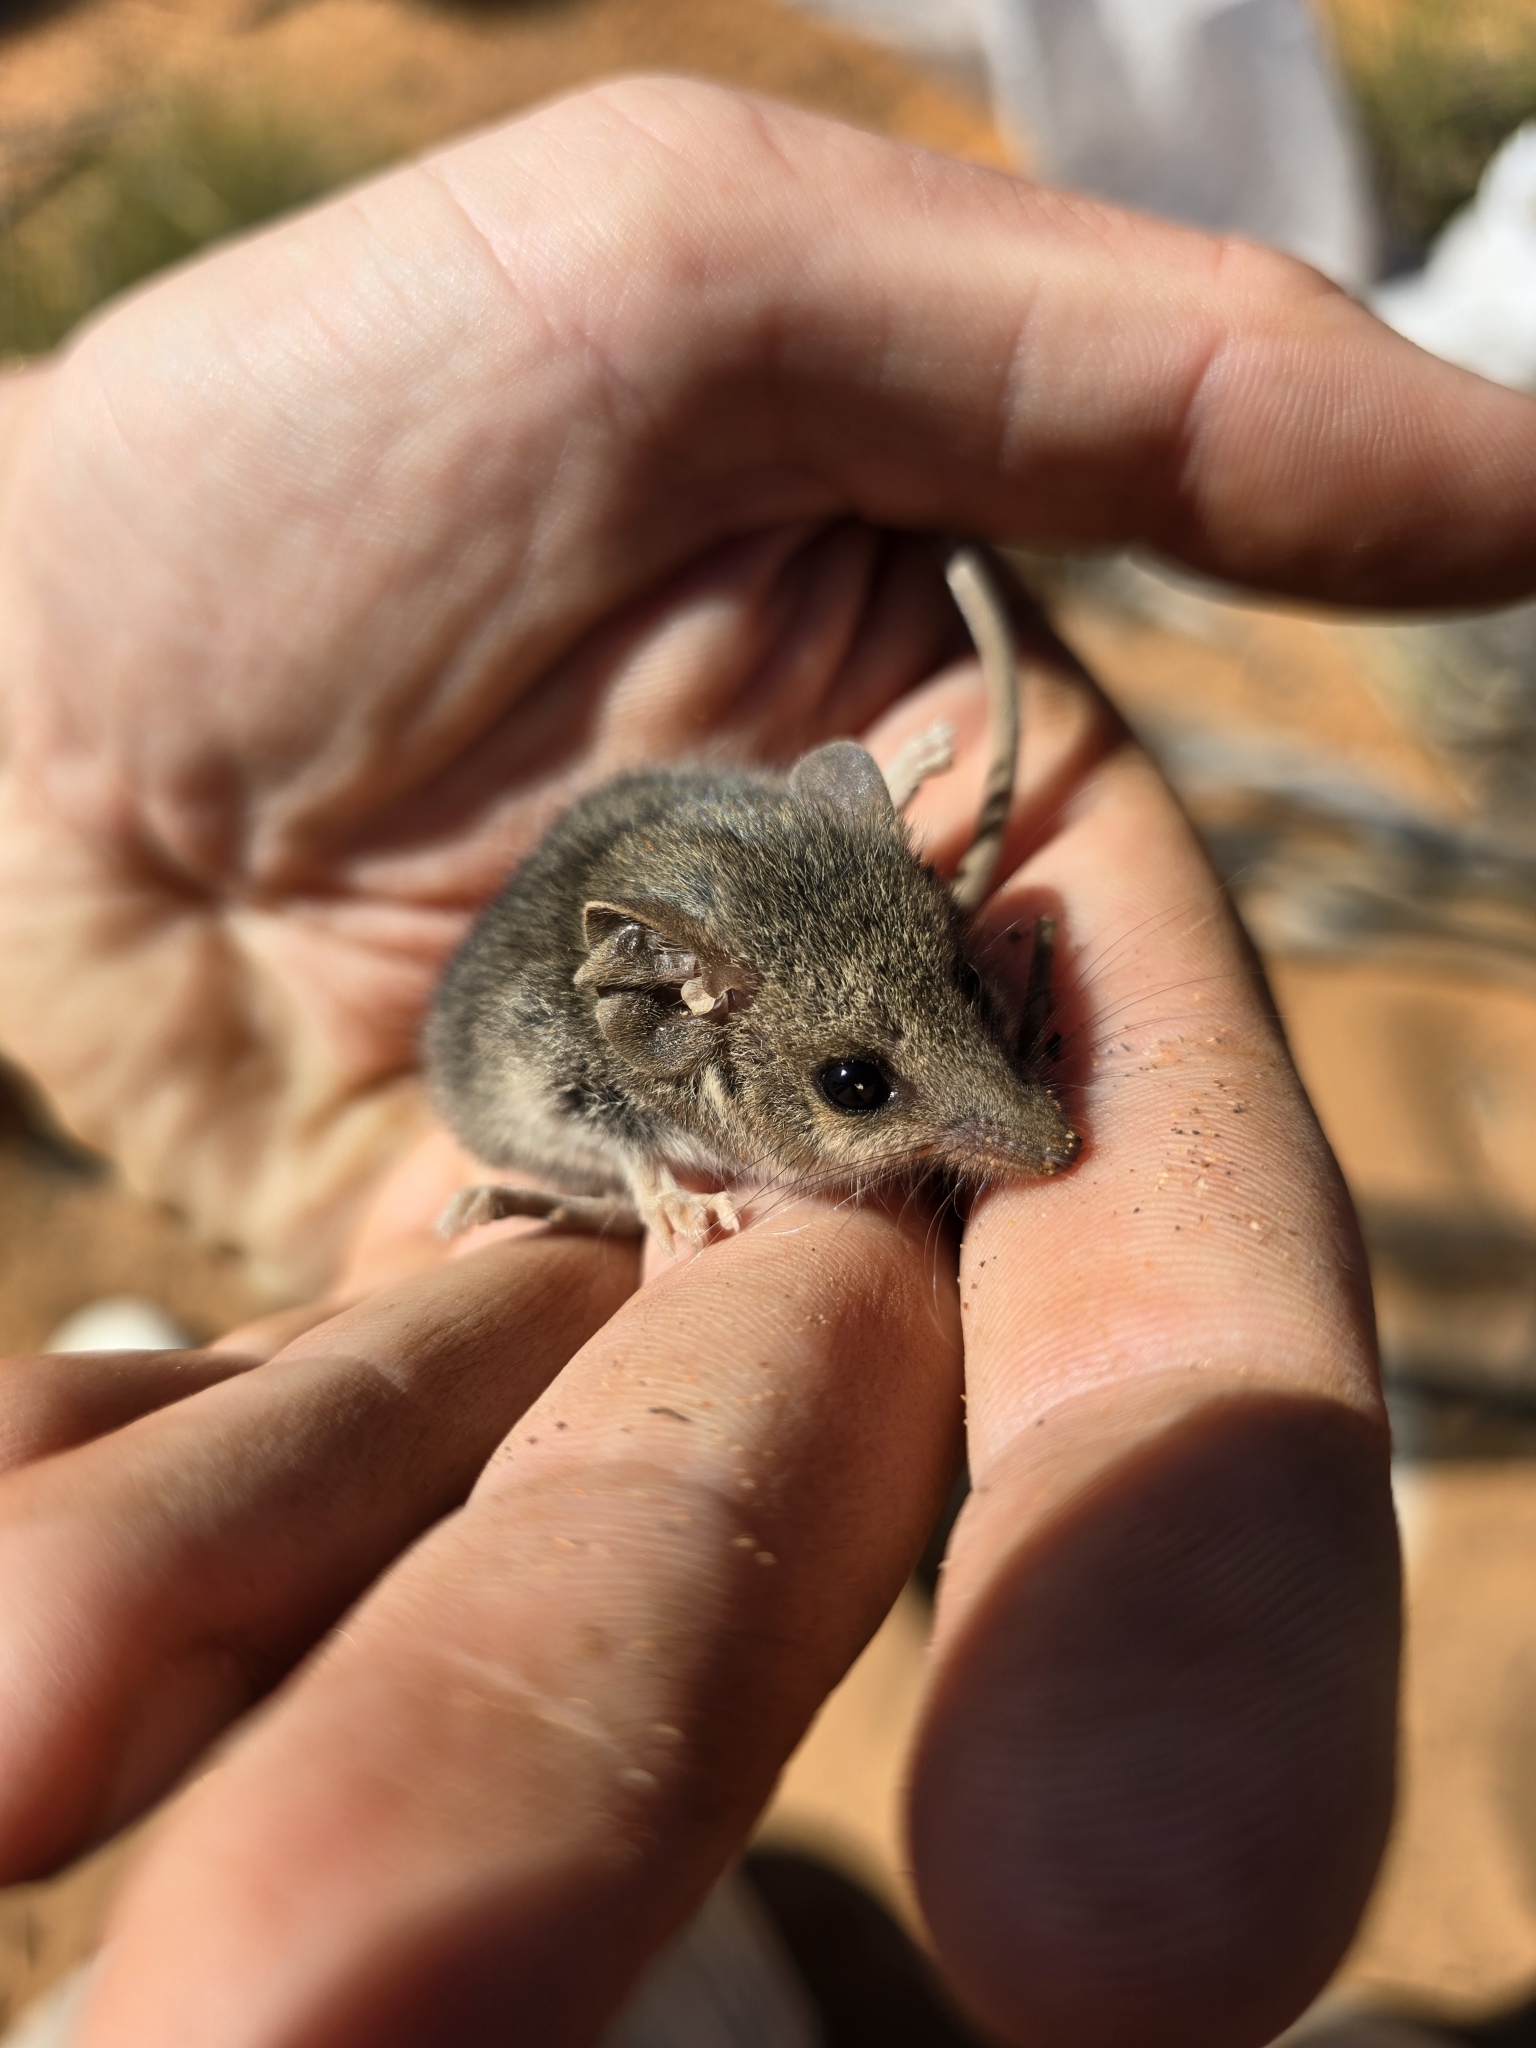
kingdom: Animalia
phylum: Chordata
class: Mammalia
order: Dasyuromorphia
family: Dasyuridae
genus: Sminthopsis
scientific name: Sminthopsis murina
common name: Slender-tailed dunnart
